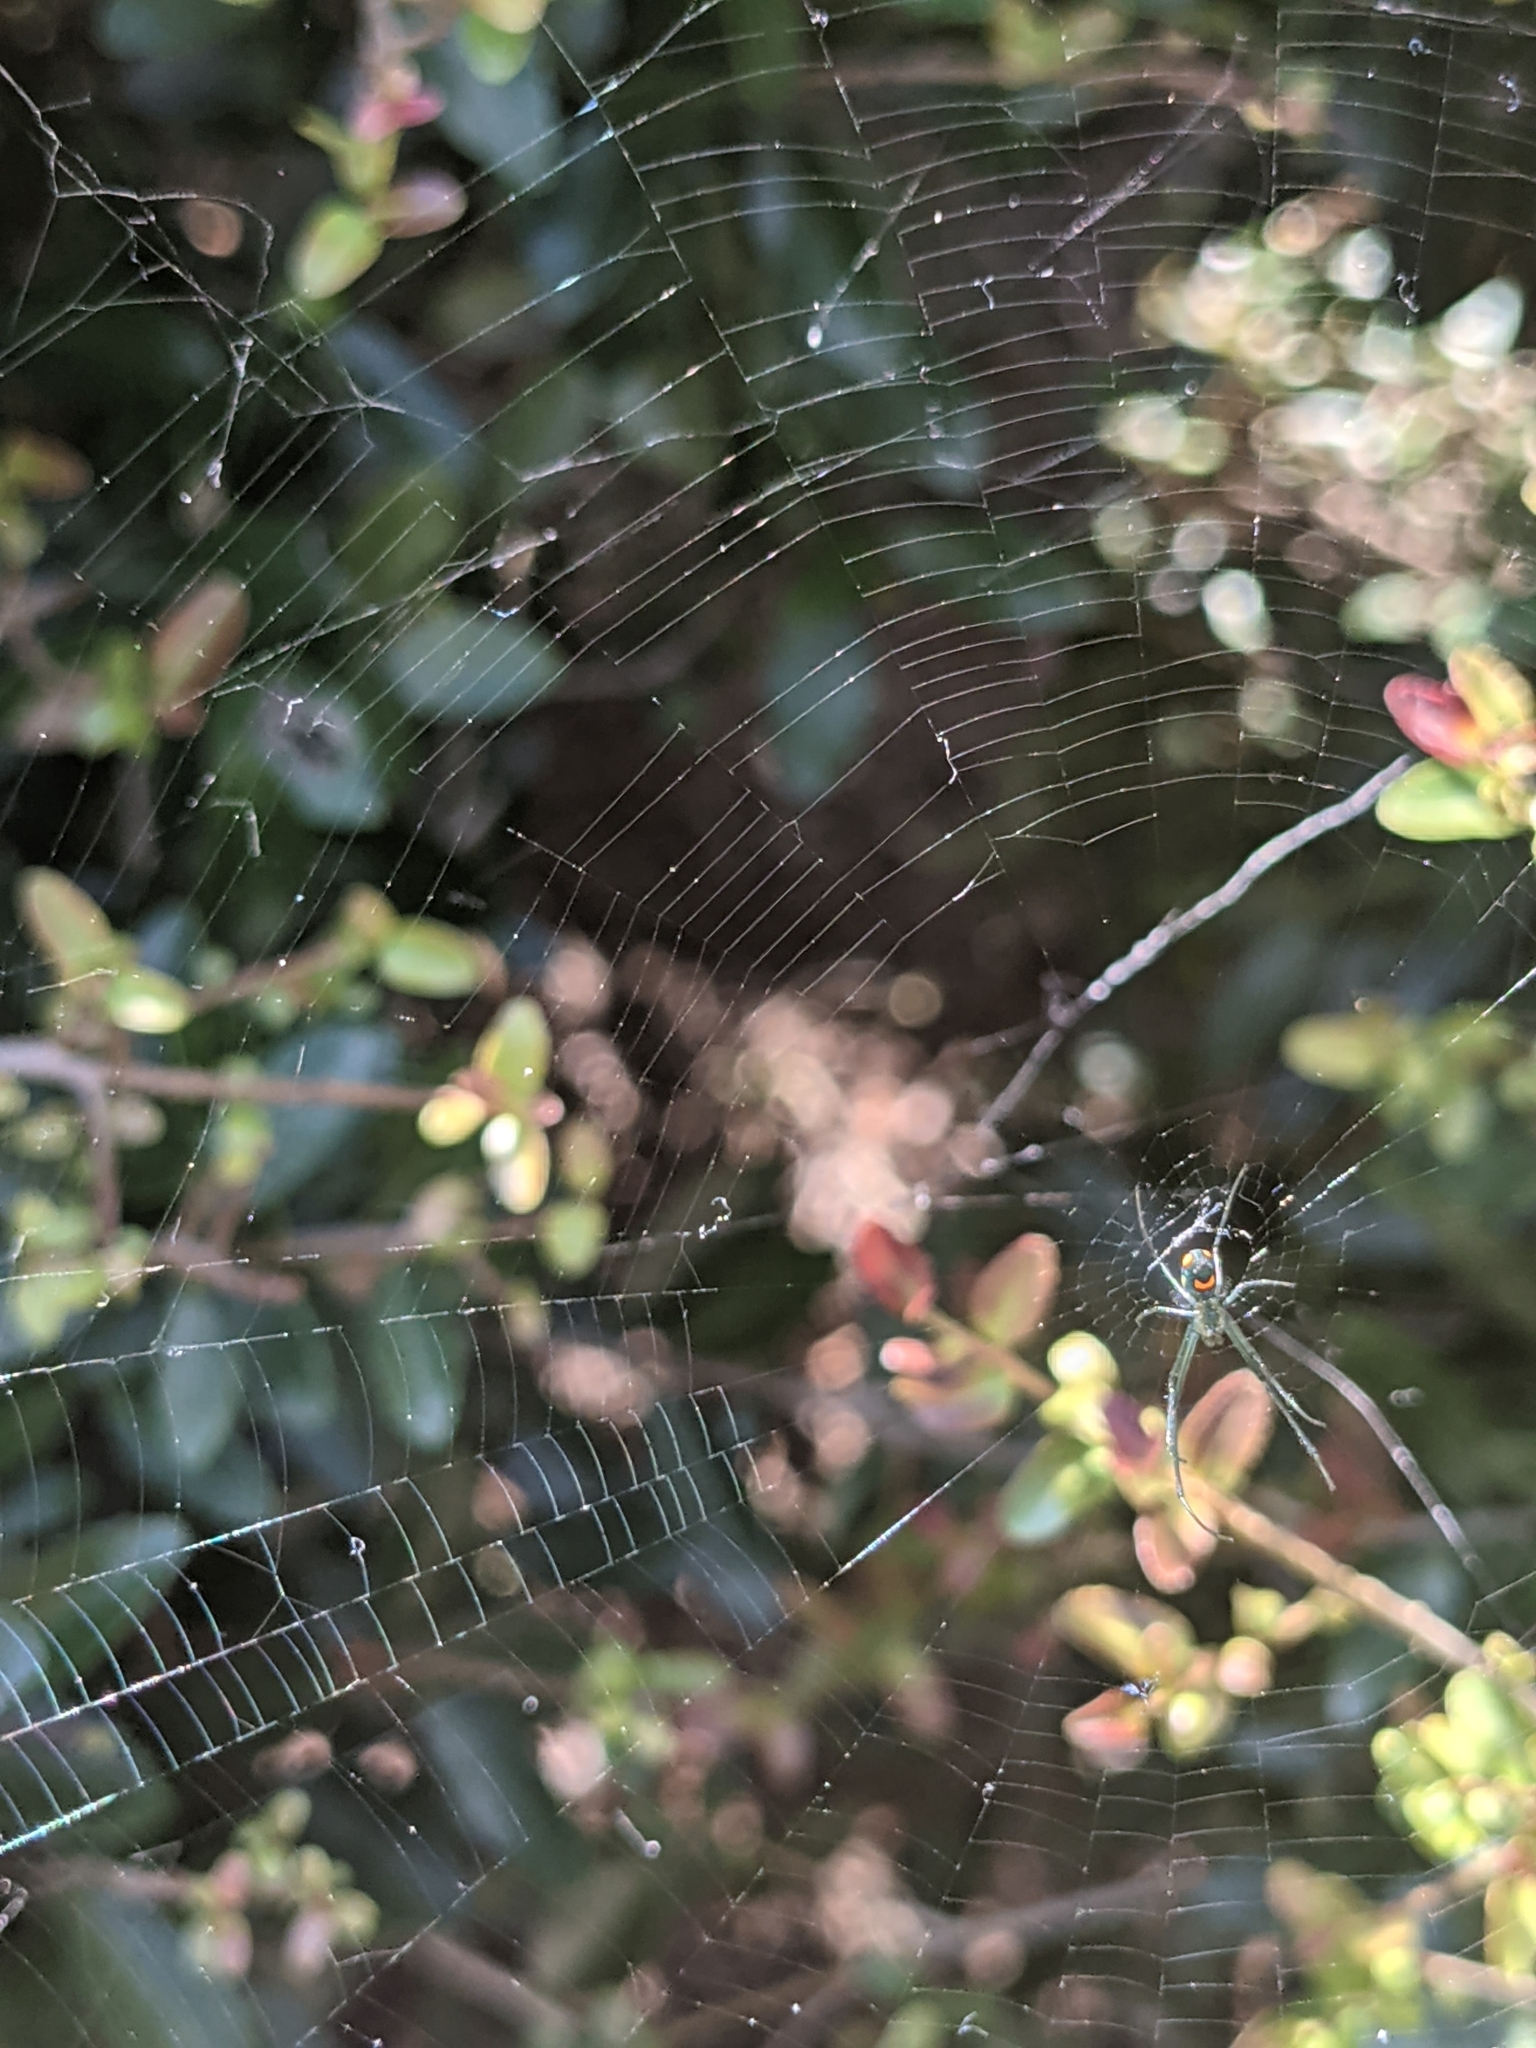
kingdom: Animalia
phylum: Arthropoda
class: Arachnida
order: Araneae
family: Tetragnathidae
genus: Leucauge
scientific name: Leucauge argyrobapta
